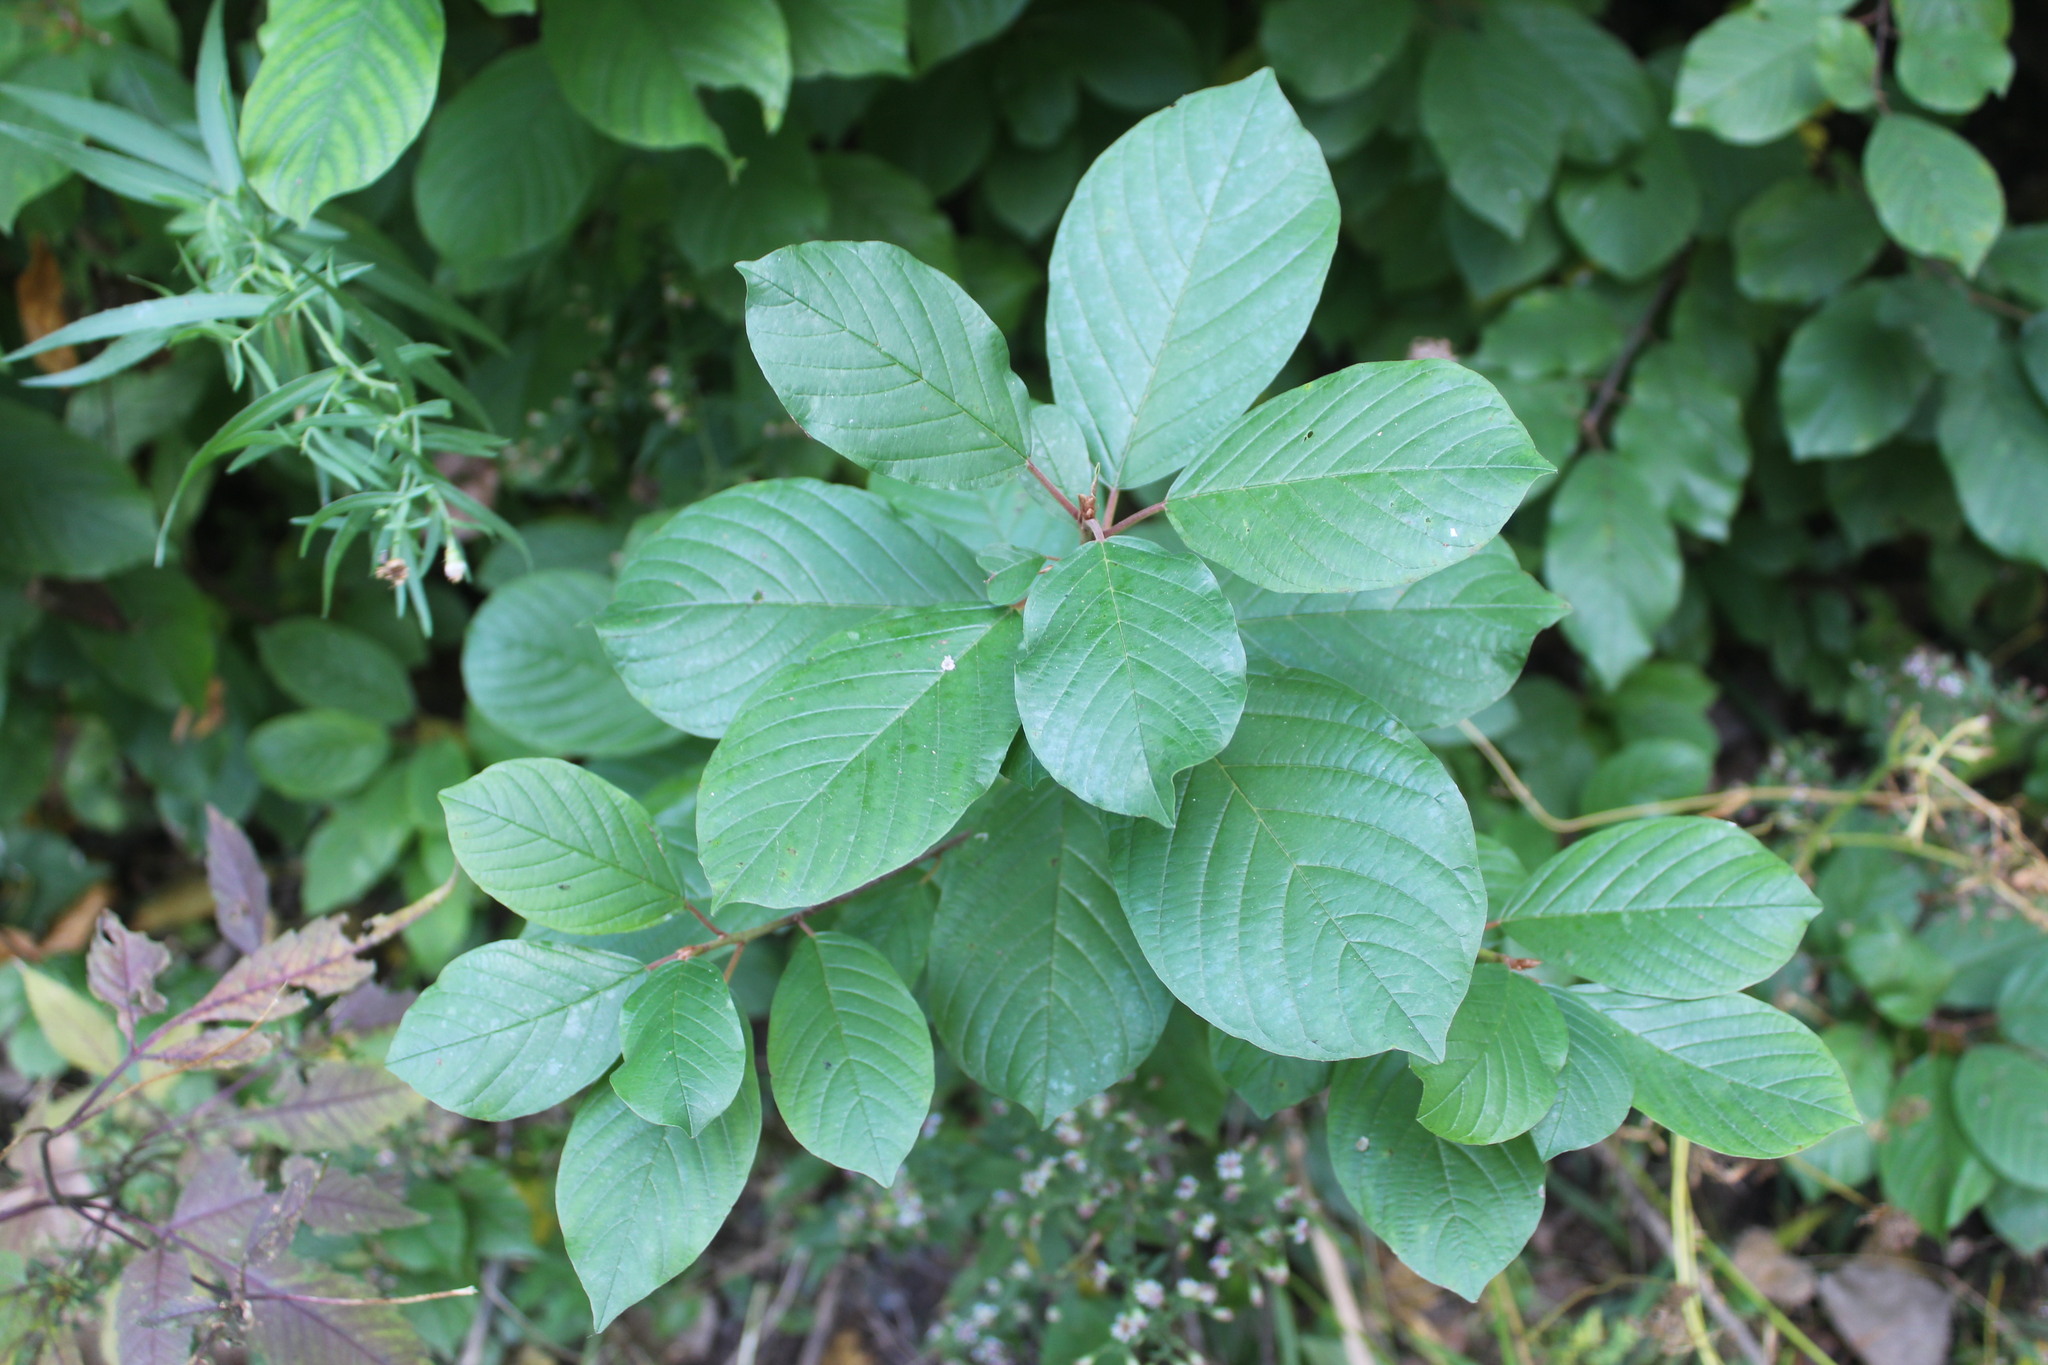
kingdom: Plantae
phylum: Tracheophyta
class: Magnoliopsida
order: Rosales
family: Rhamnaceae
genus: Frangula
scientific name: Frangula alnus
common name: Alder buckthorn
